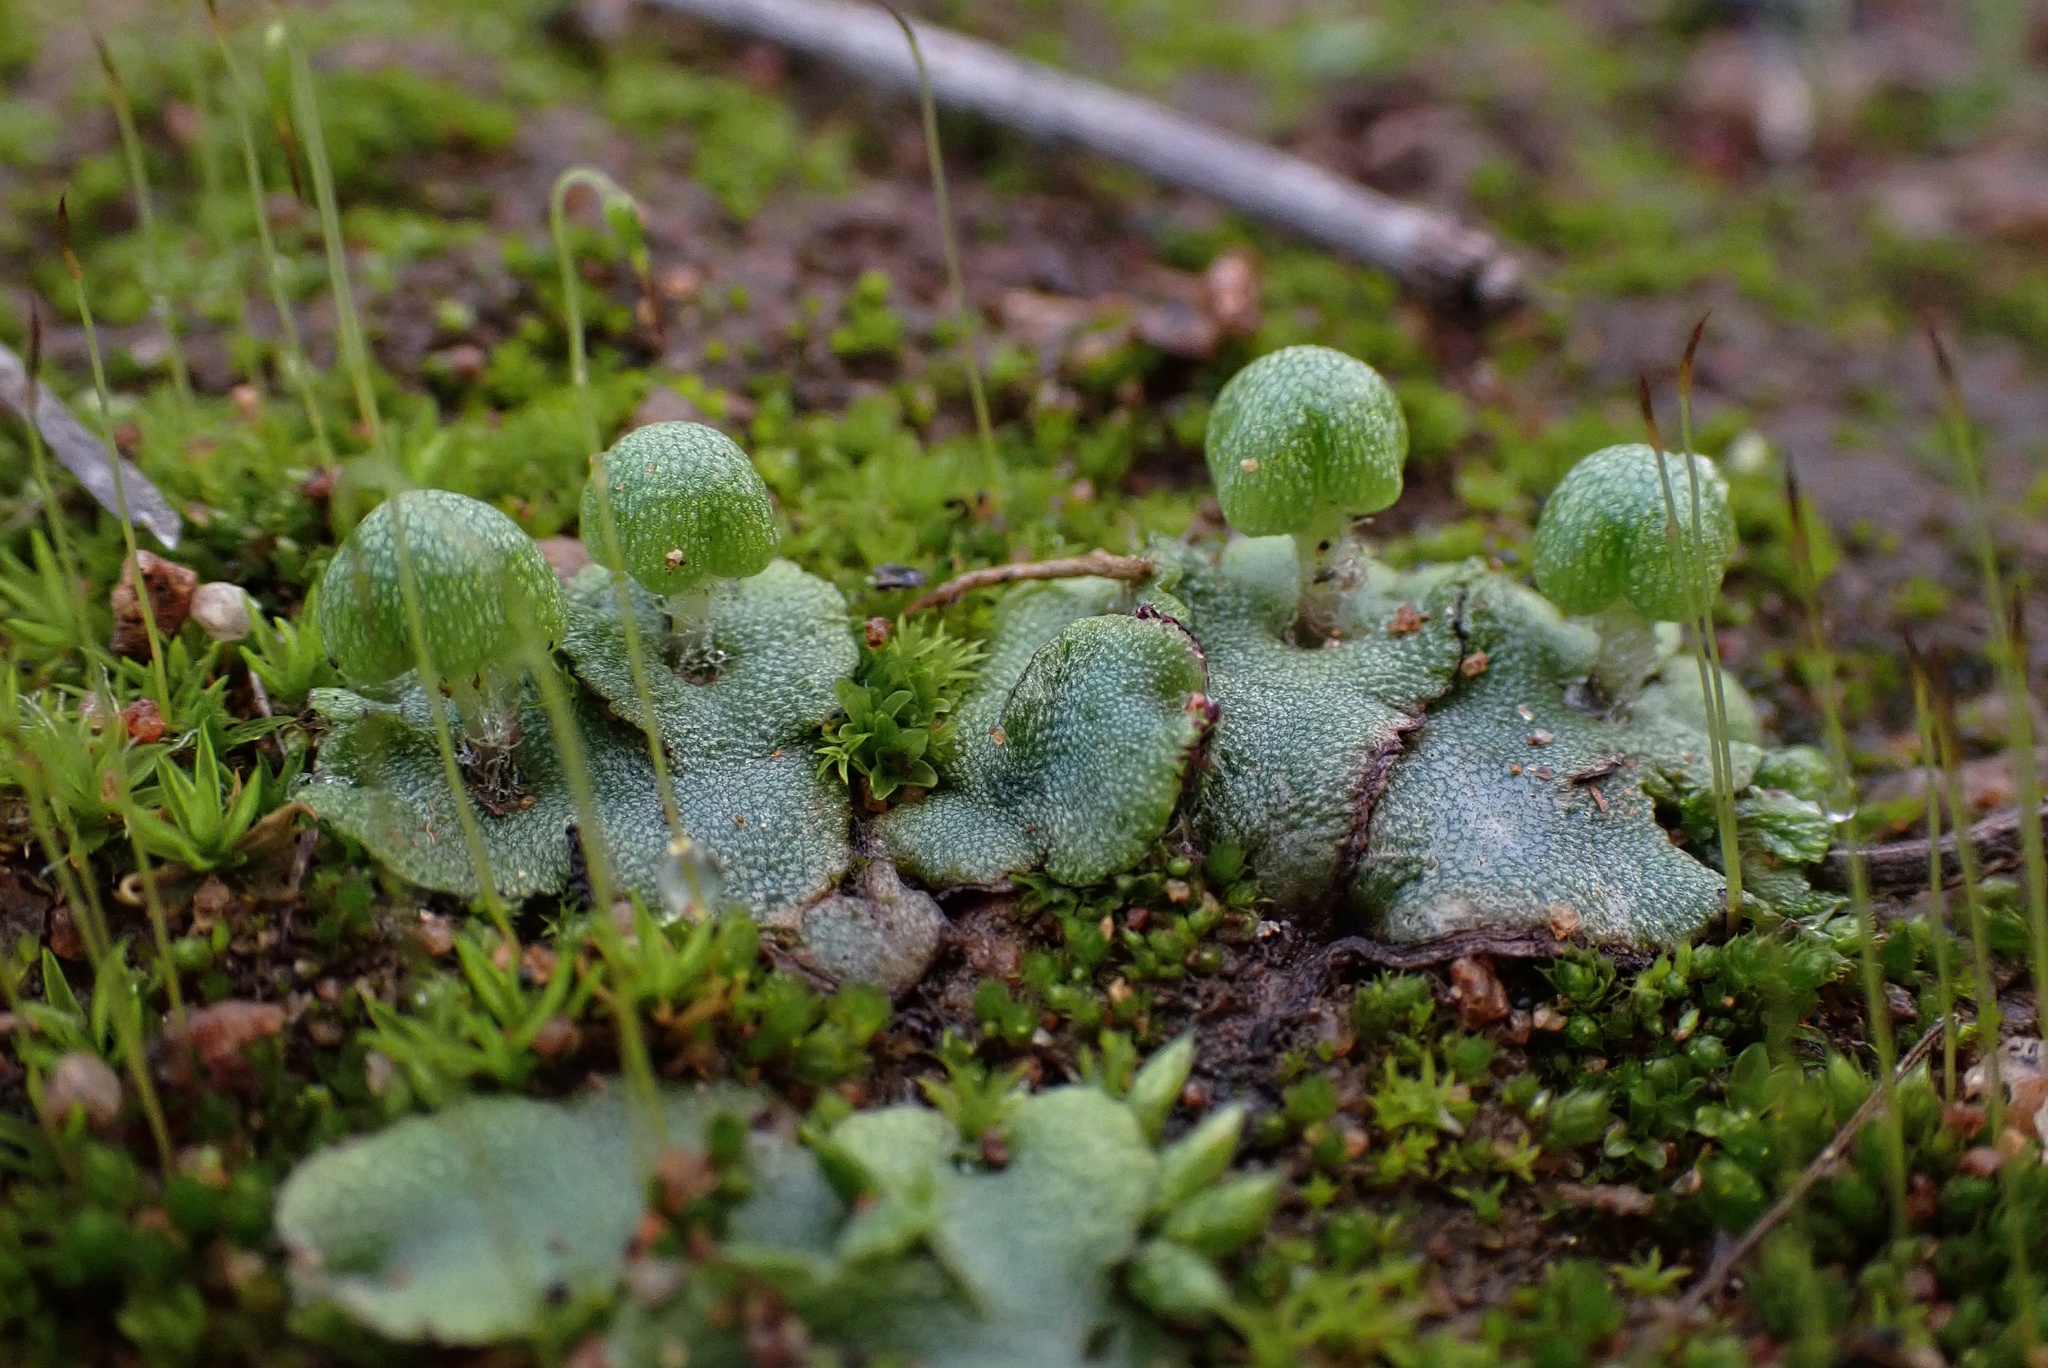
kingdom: Plantae
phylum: Marchantiophyta
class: Marchantiopsida
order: Marchantiales
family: Aytoniaceae
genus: Asterella
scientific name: Asterella californica
